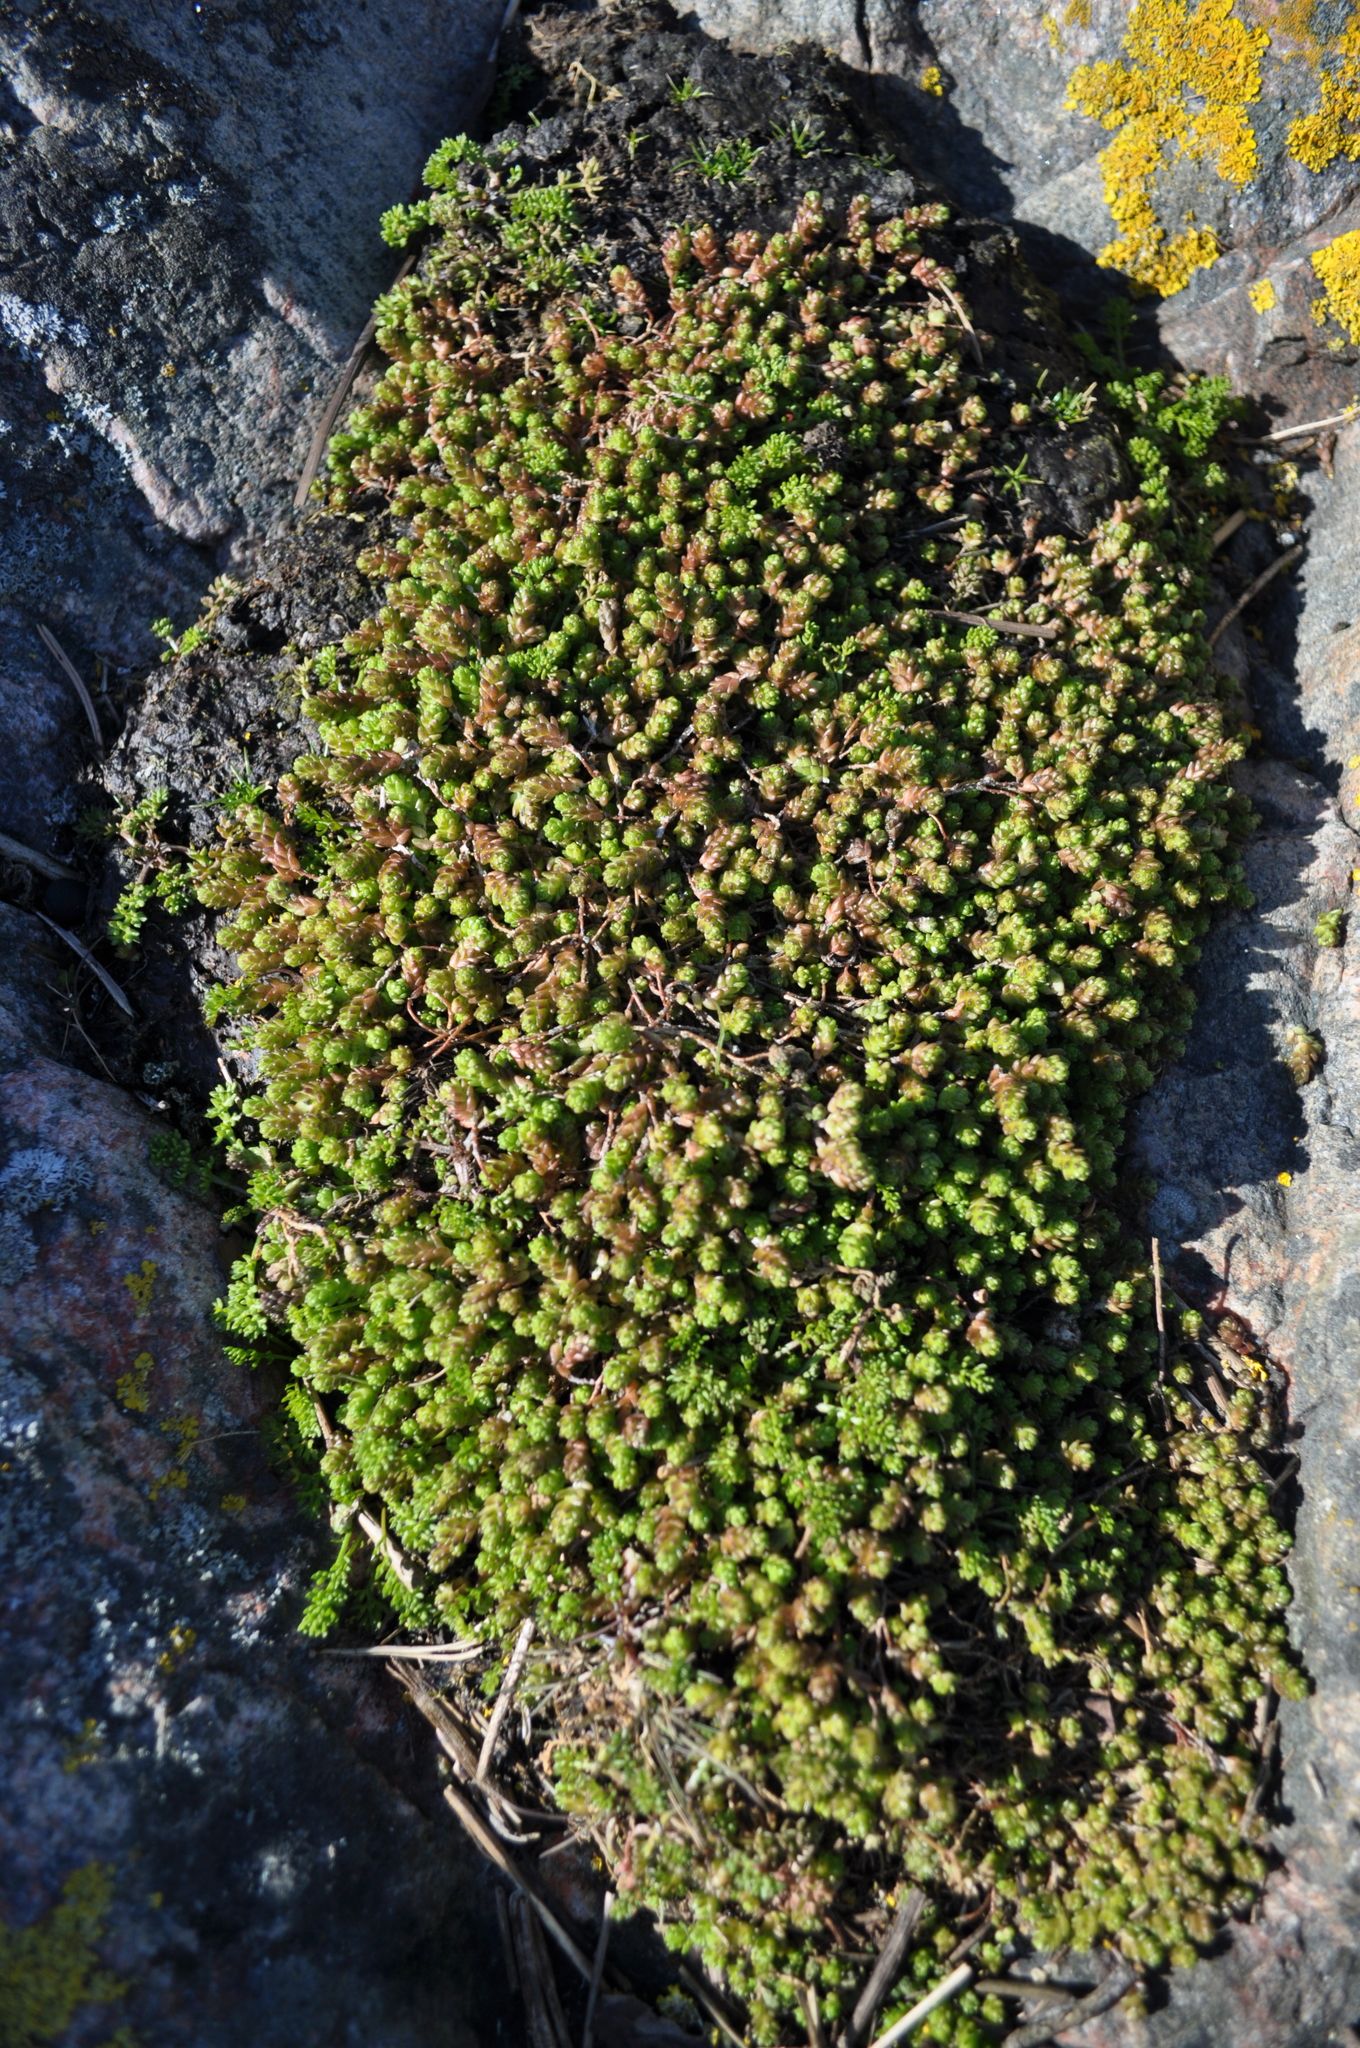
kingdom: Plantae
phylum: Tracheophyta
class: Magnoliopsida
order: Saxifragales
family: Crassulaceae
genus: Sedum
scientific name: Sedum acre
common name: Biting stonecrop
